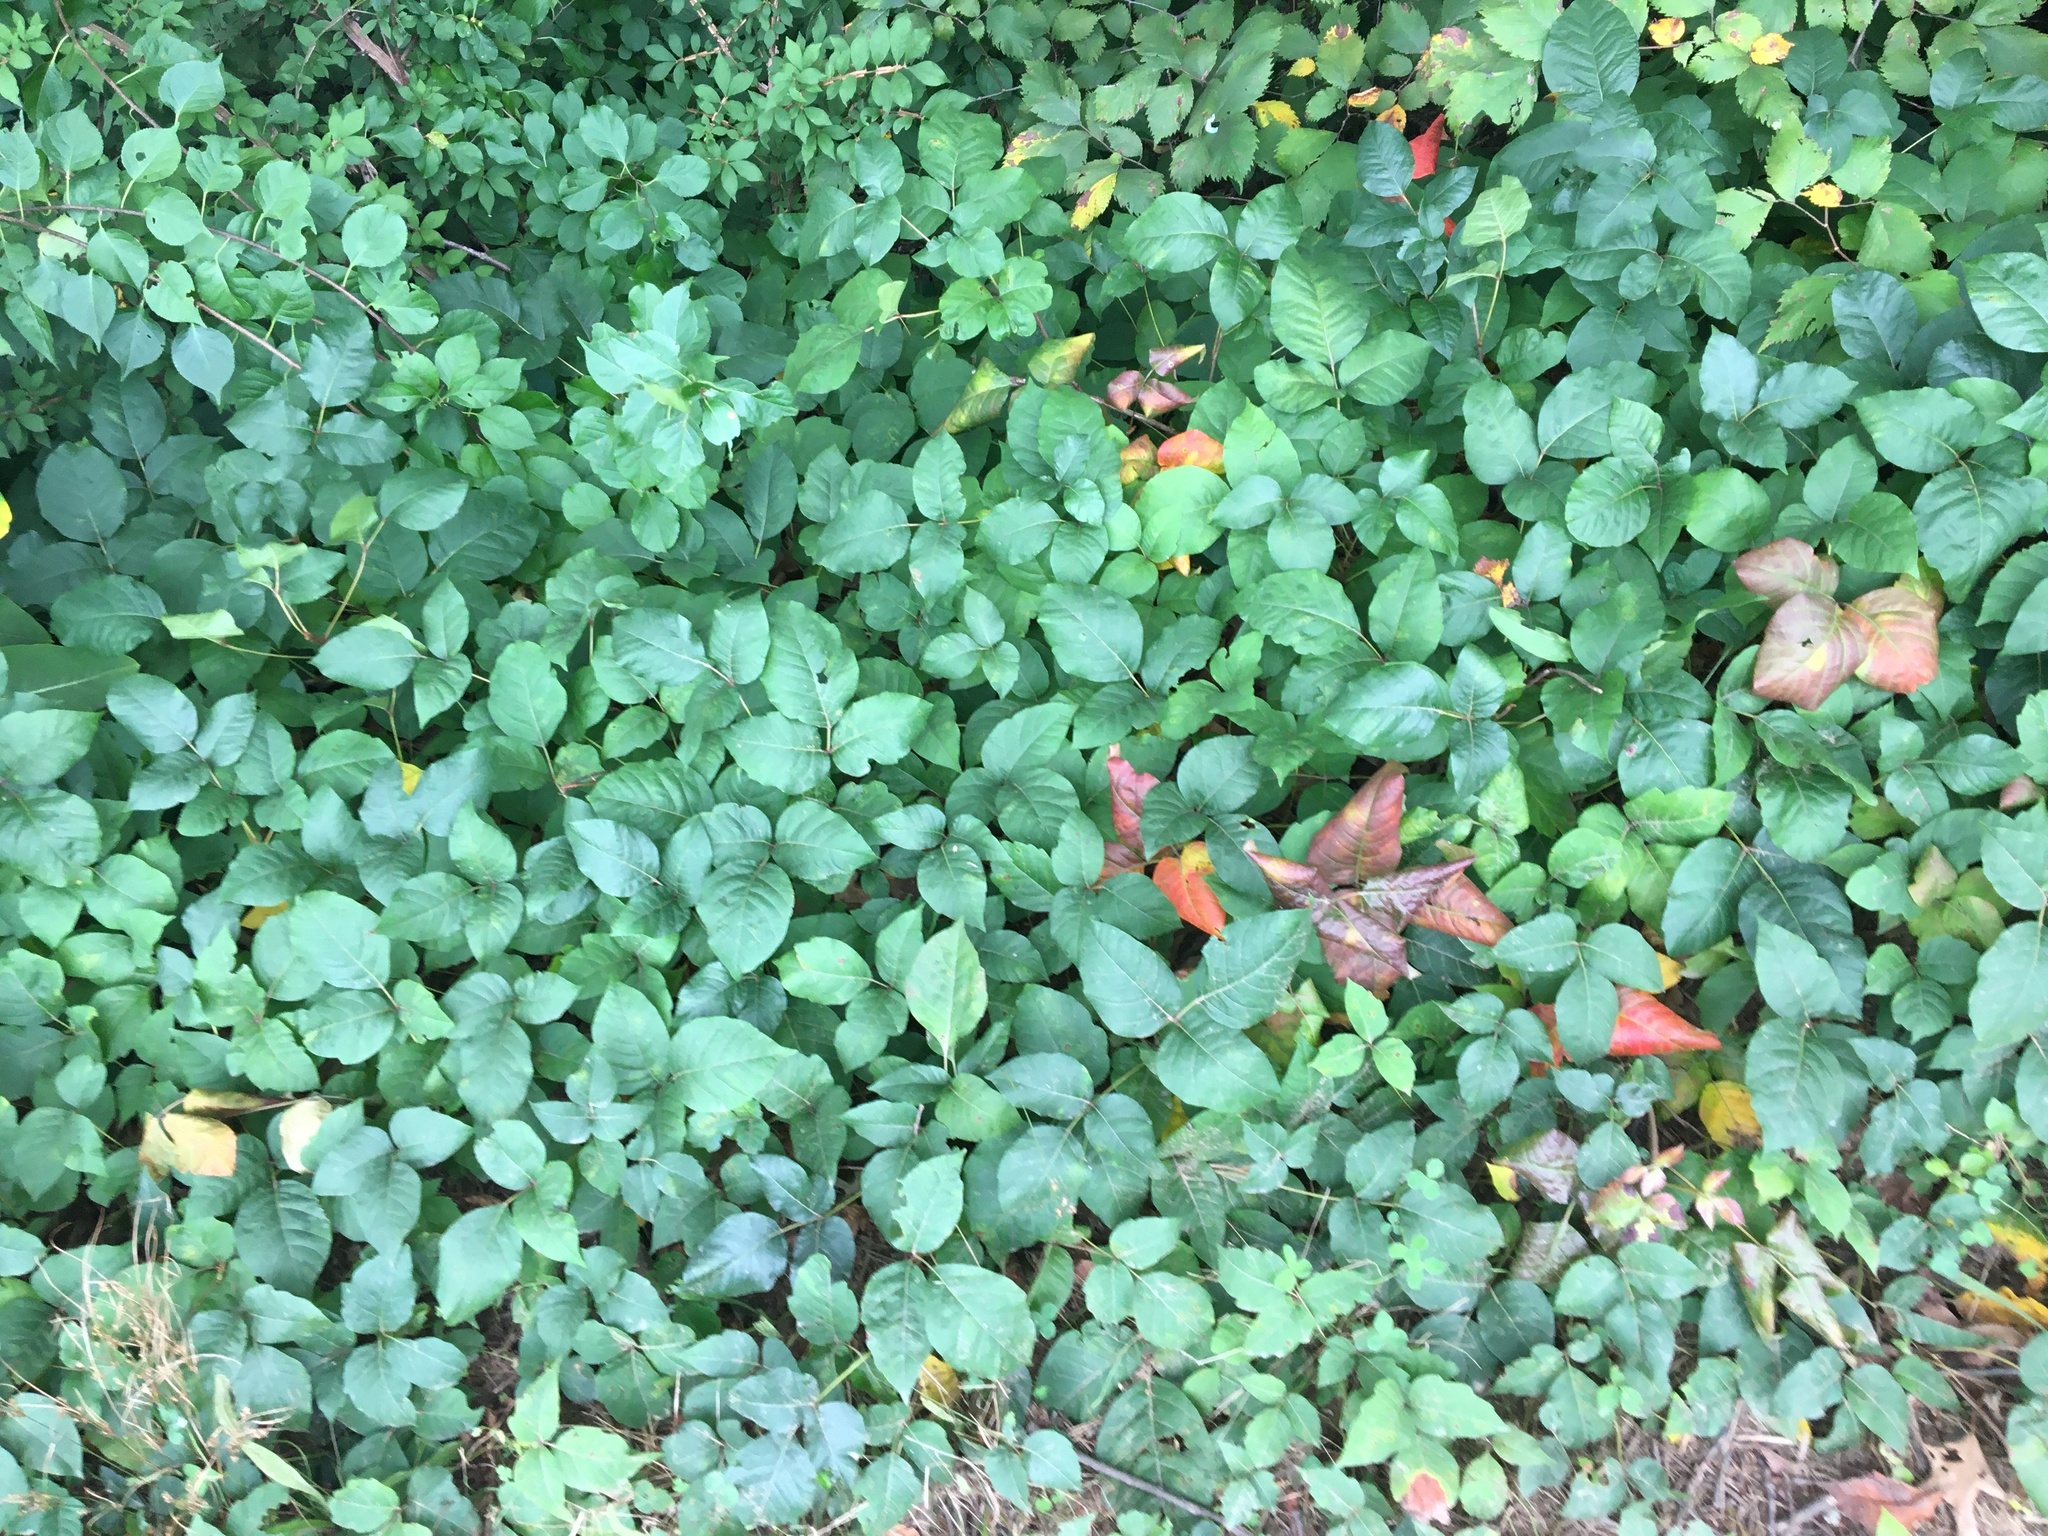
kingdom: Plantae
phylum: Tracheophyta
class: Magnoliopsida
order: Lamiales
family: Lamiaceae
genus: Thymus
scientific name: Thymus pulegioides
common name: Large thyme
